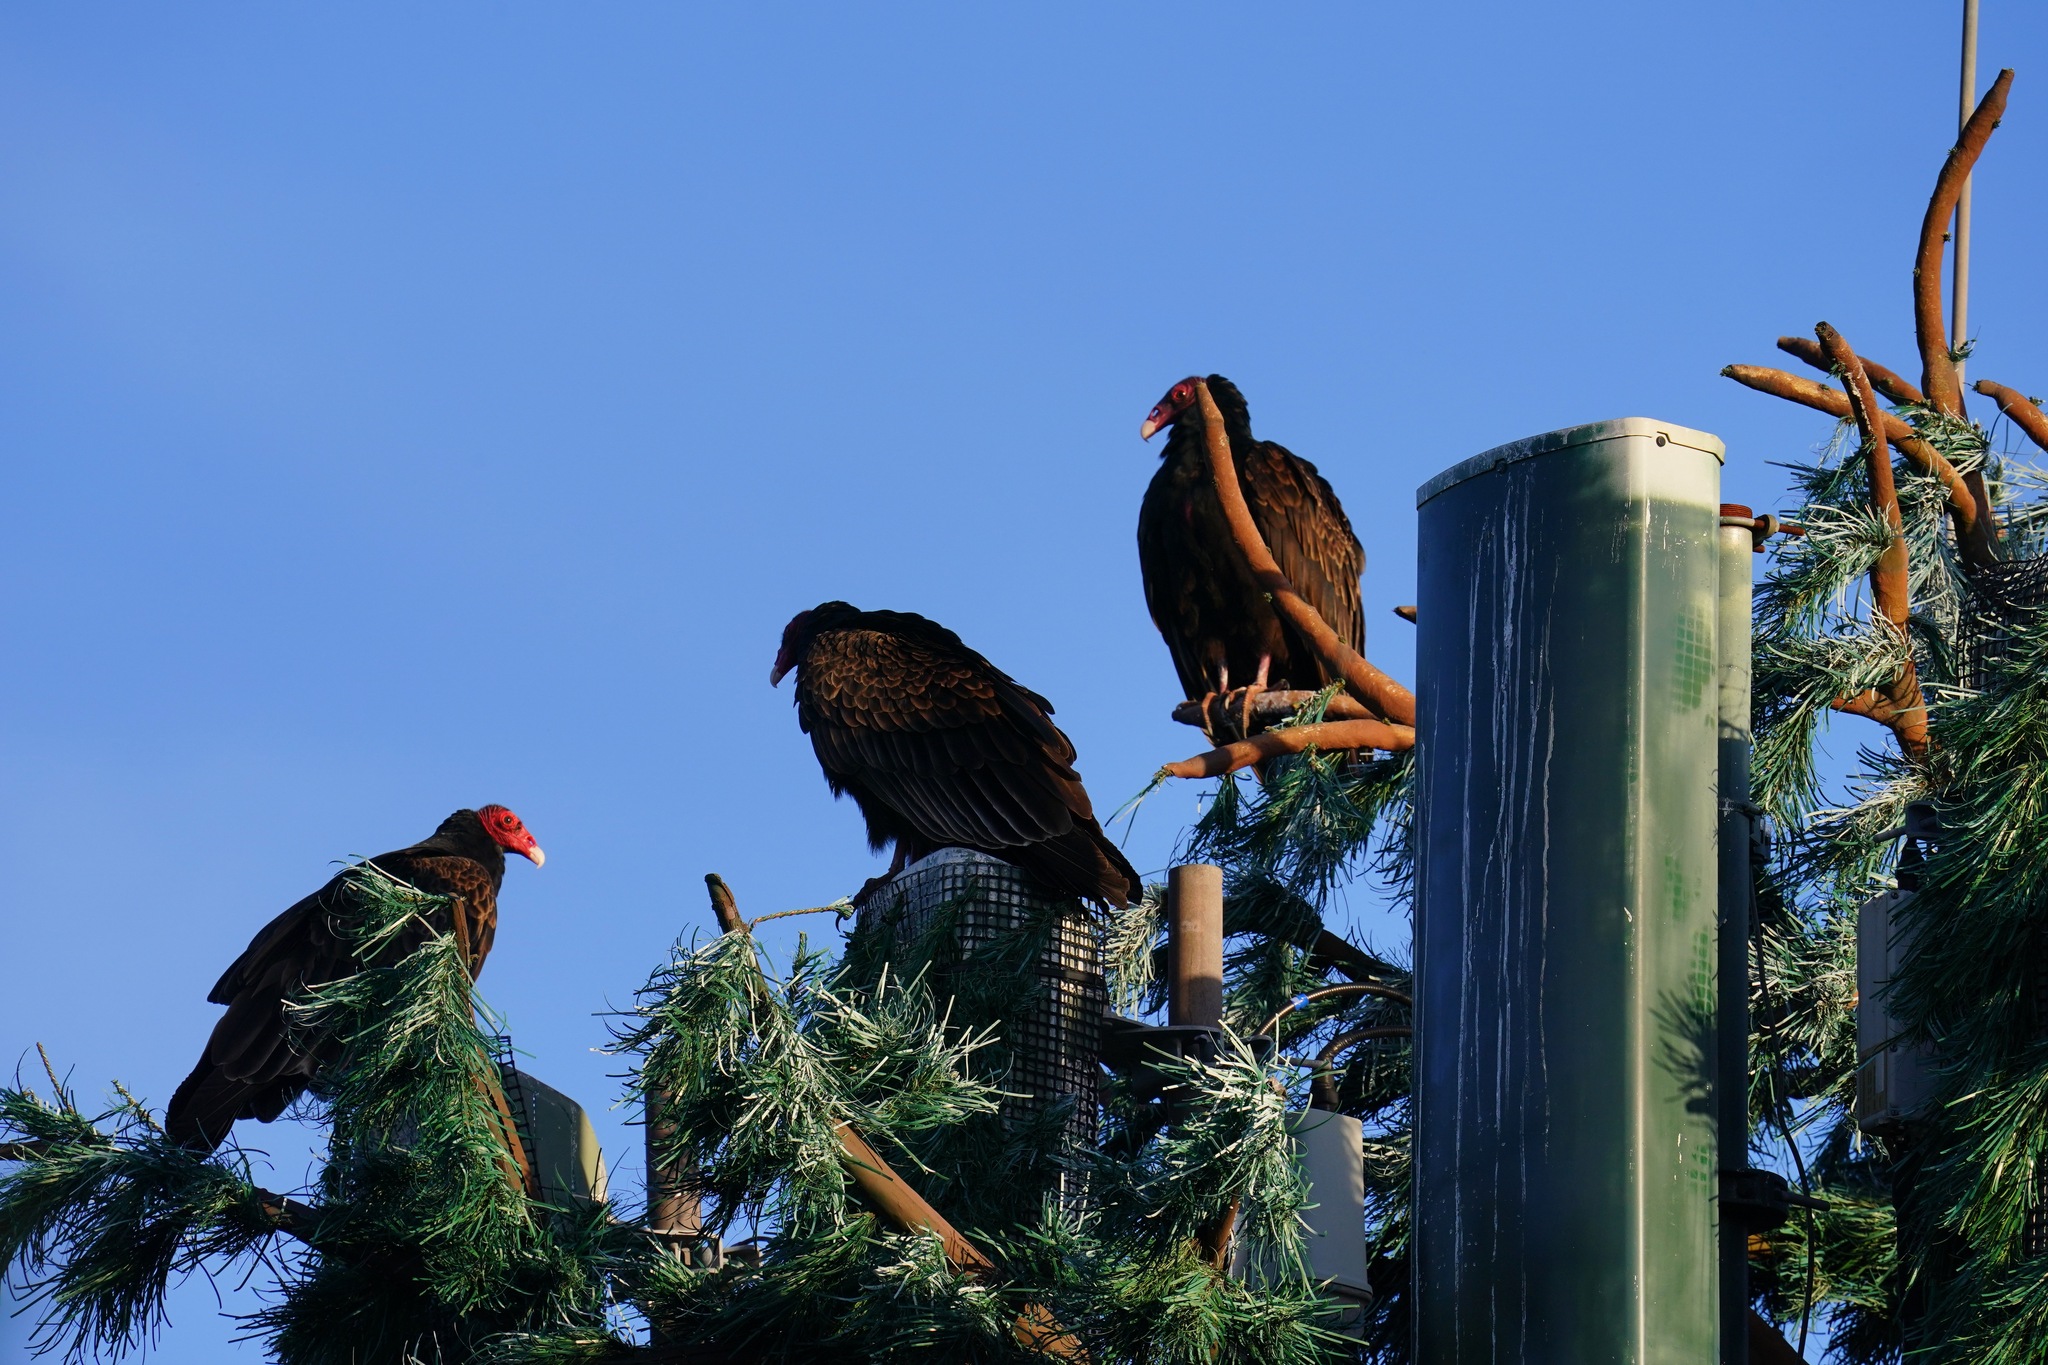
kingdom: Animalia
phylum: Chordata
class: Aves
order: Accipitriformes
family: Cathartidae
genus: Cathartes
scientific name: Cathartes aura
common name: Turkey vulture
